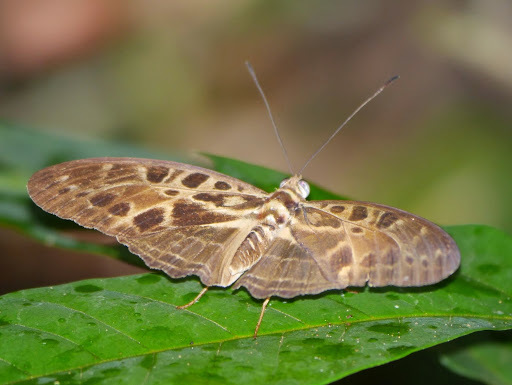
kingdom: Animalia
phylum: Arthropoda
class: Insecta
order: Lepidoptera
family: Nymphalidae
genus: Catuna
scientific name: Catuna
